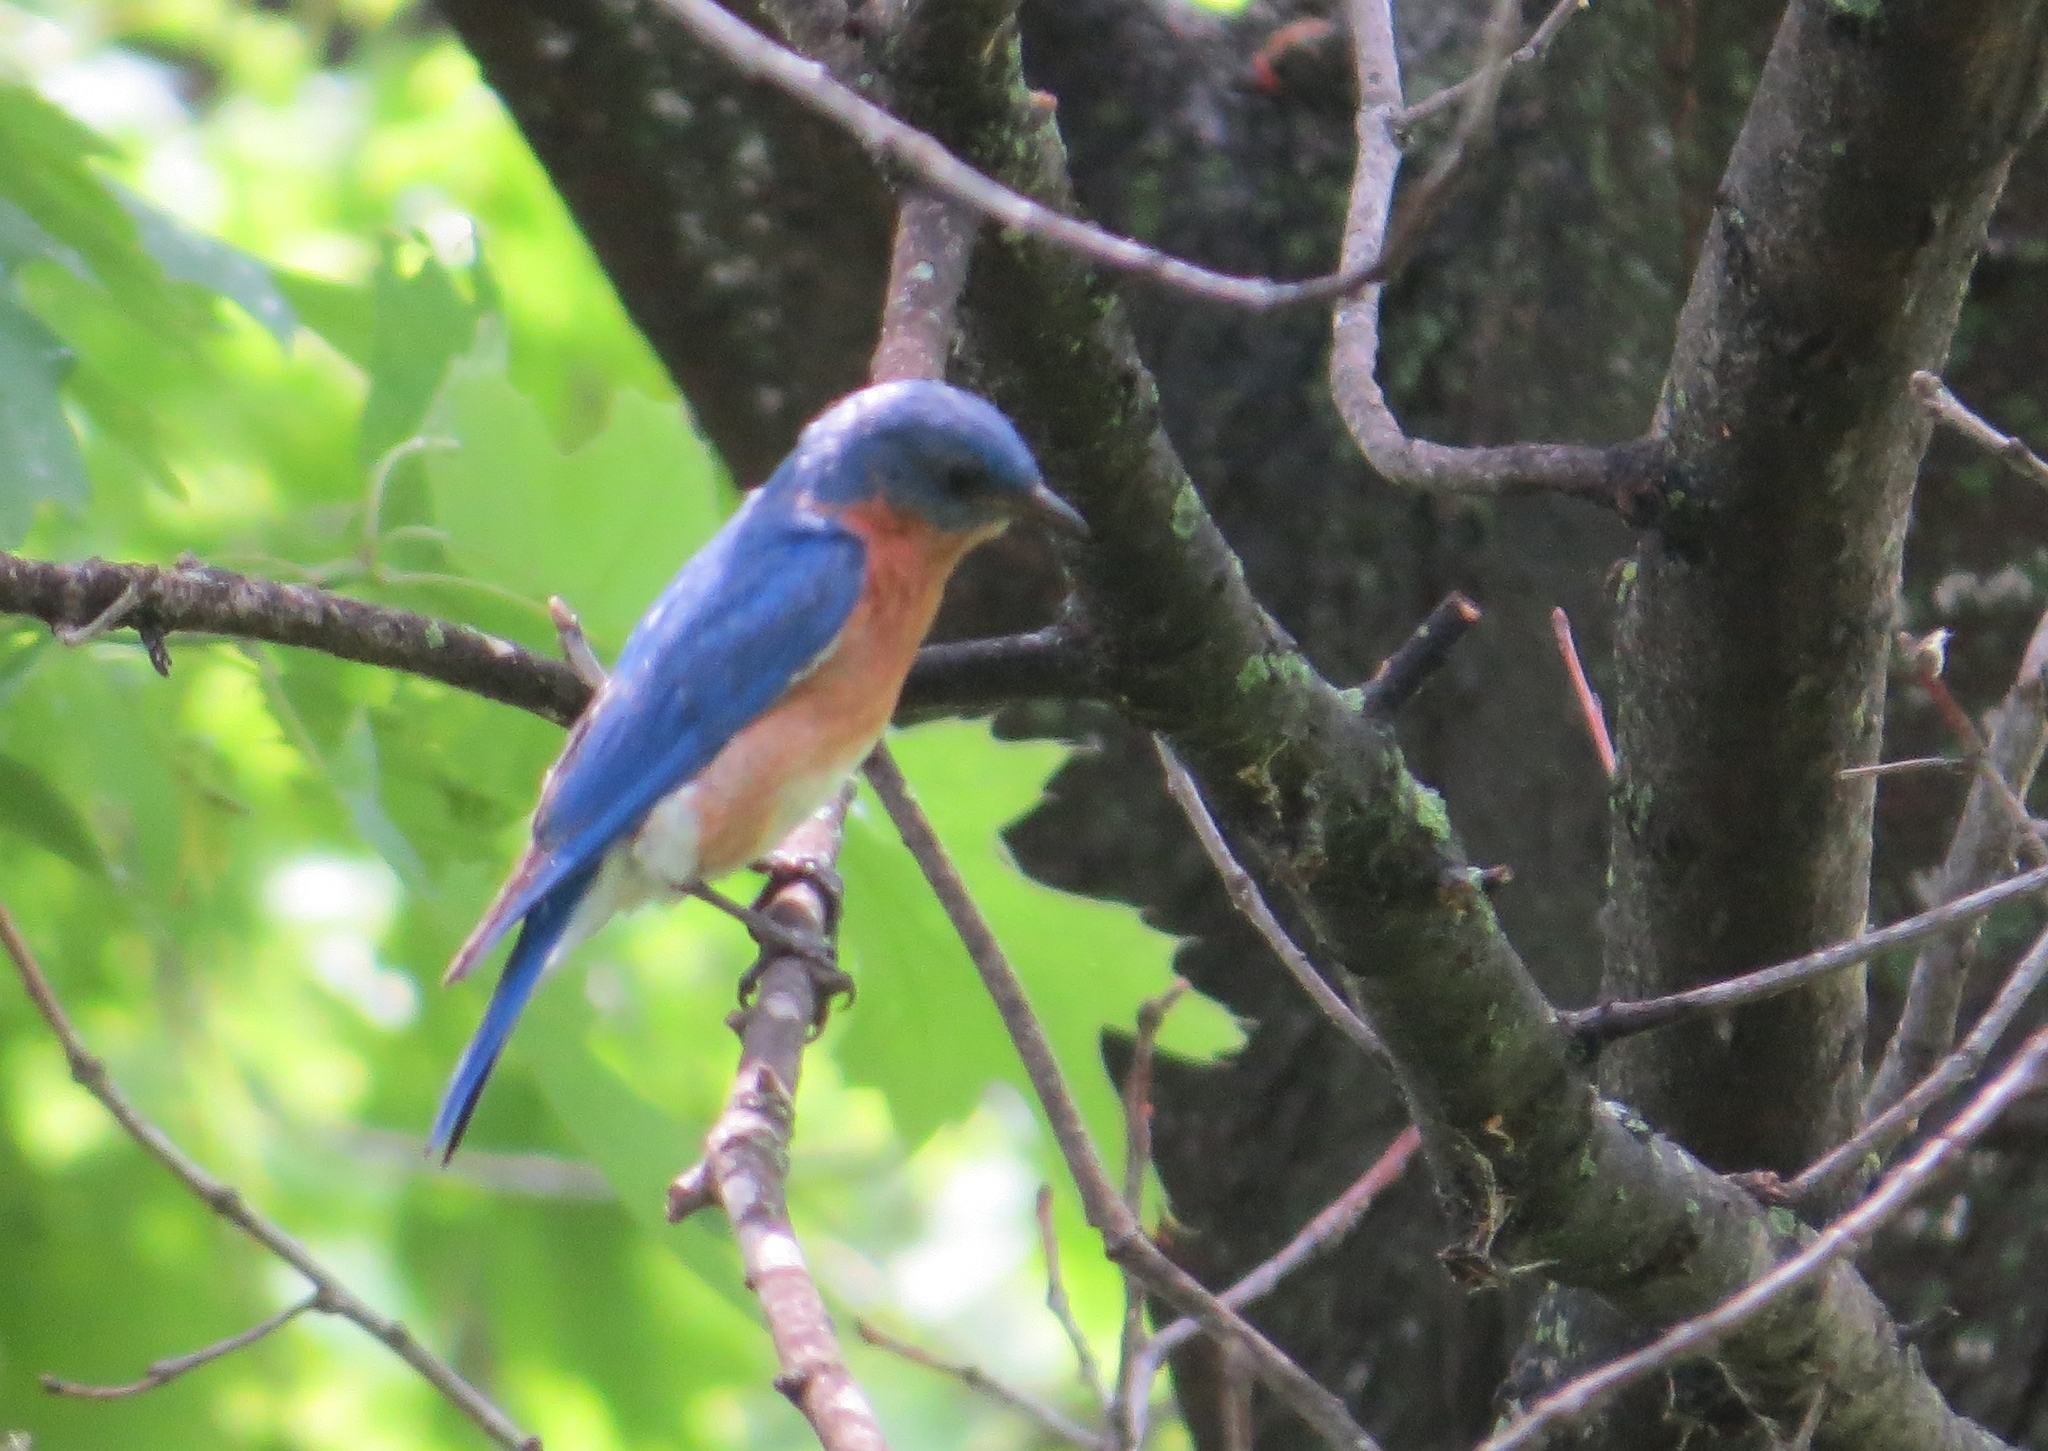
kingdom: Animalia
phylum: Chordata
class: Aves
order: Passeriformes
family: Turdidae
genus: Sialia
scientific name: Sialia sialis
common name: Eastern bluebird
